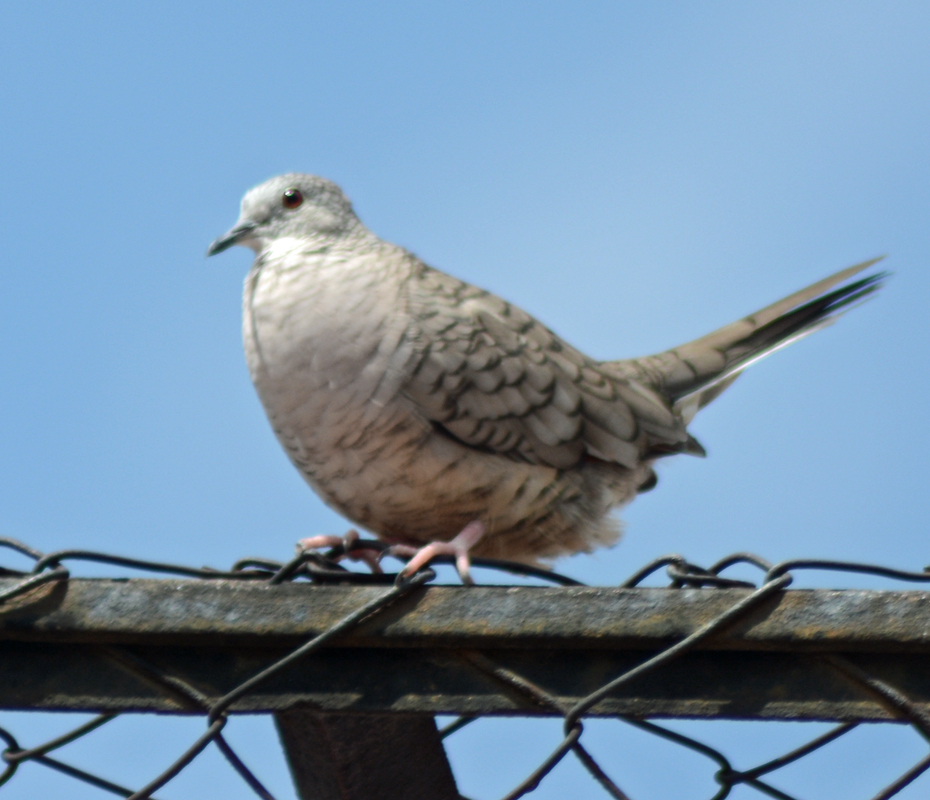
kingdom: Animalia
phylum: Chordata
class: Aves
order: Columbiformes
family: Columbidae
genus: Columbina
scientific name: Columbina inca
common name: Inca dove
